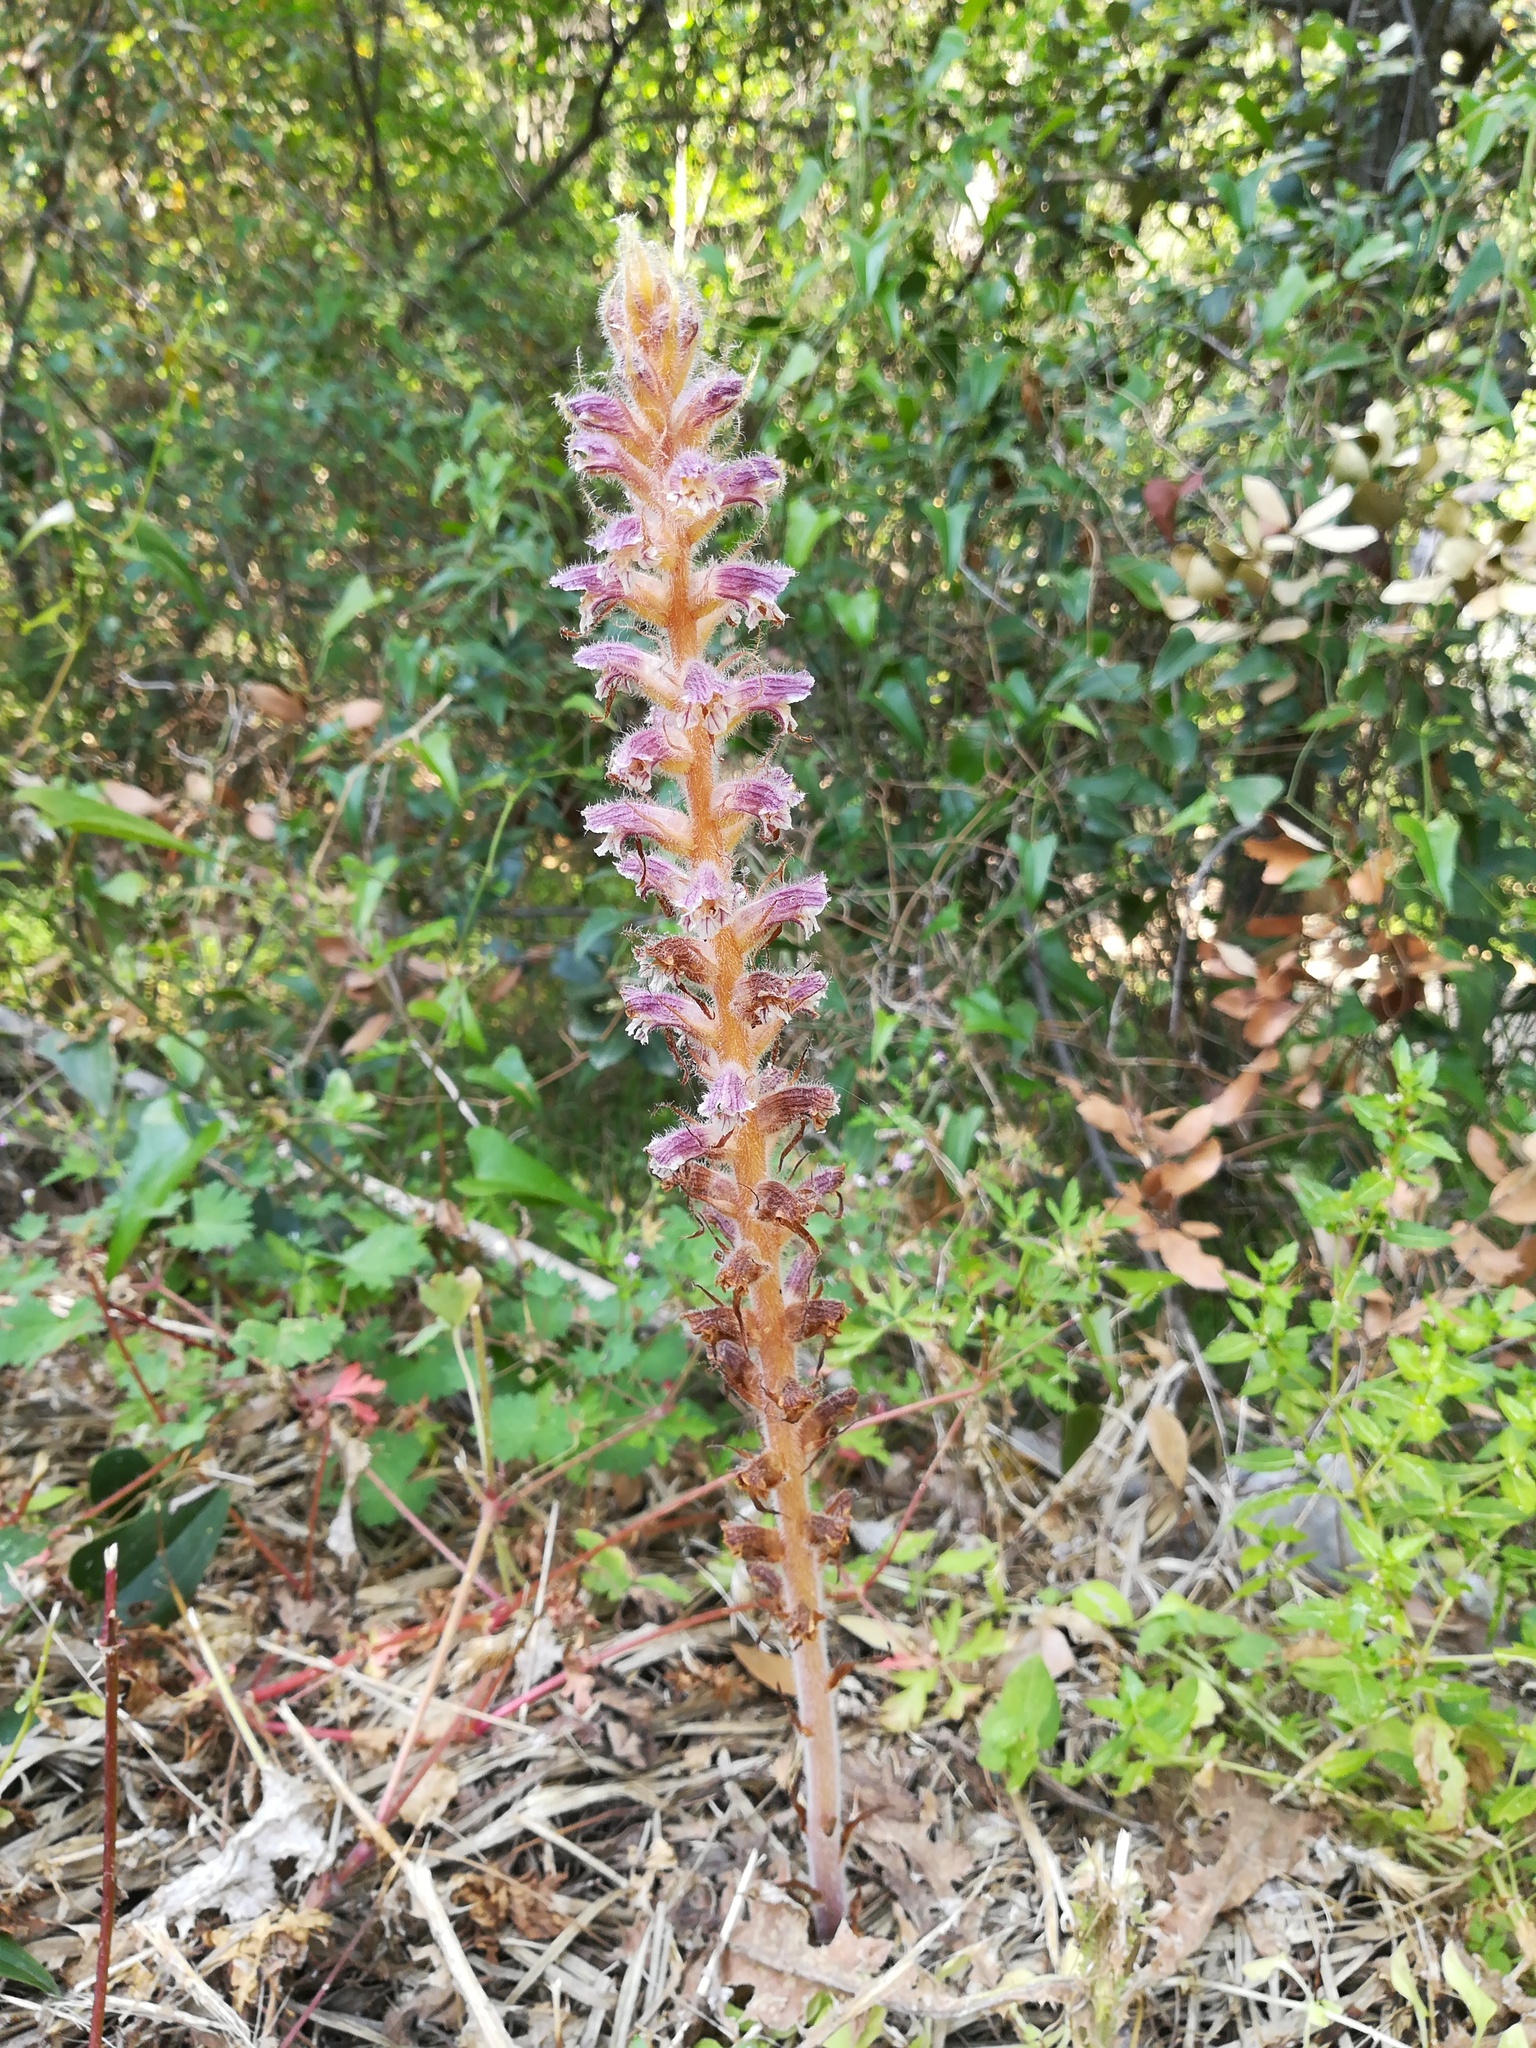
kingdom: Plantae
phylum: Tracheophyta
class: Magnoliopsida
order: Lamiales
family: Orobanchaceae
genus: Orobanche
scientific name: Orobanche pubescens
